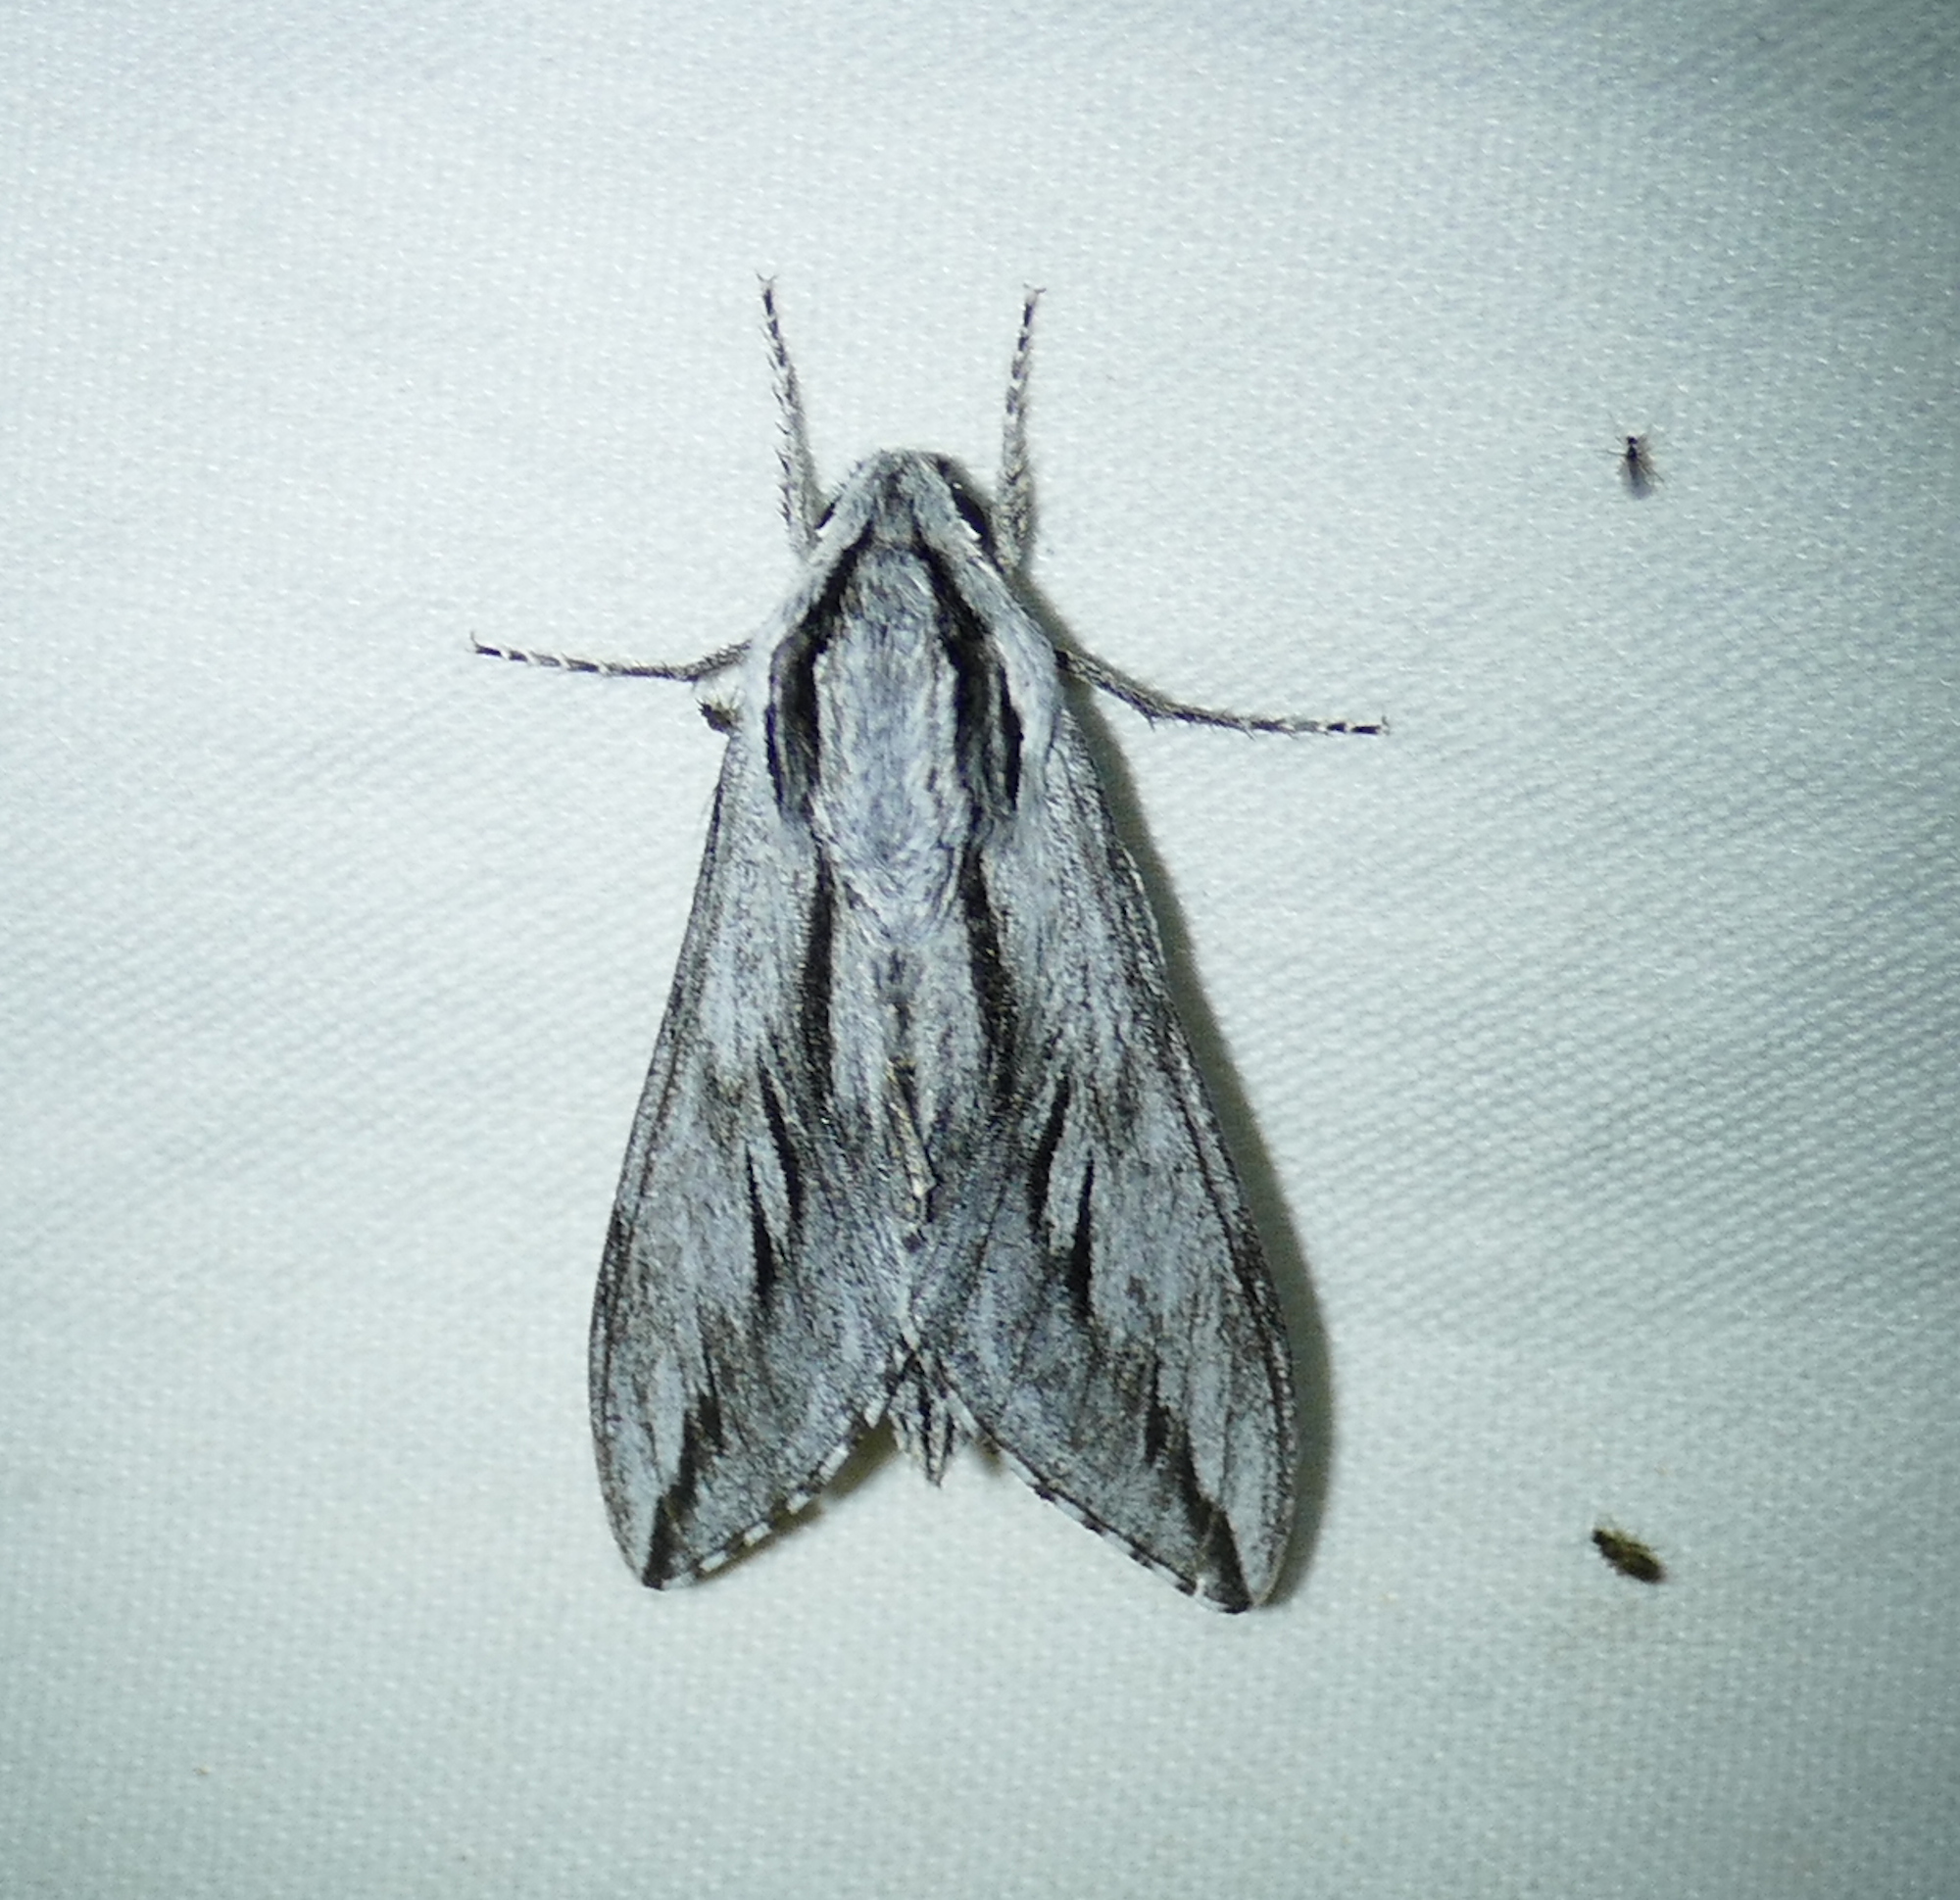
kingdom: Animalia
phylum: Arthropoda
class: Insecta
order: Lepidoptera
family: Sphingidae
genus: Sphinx
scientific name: Sphinx dollii
